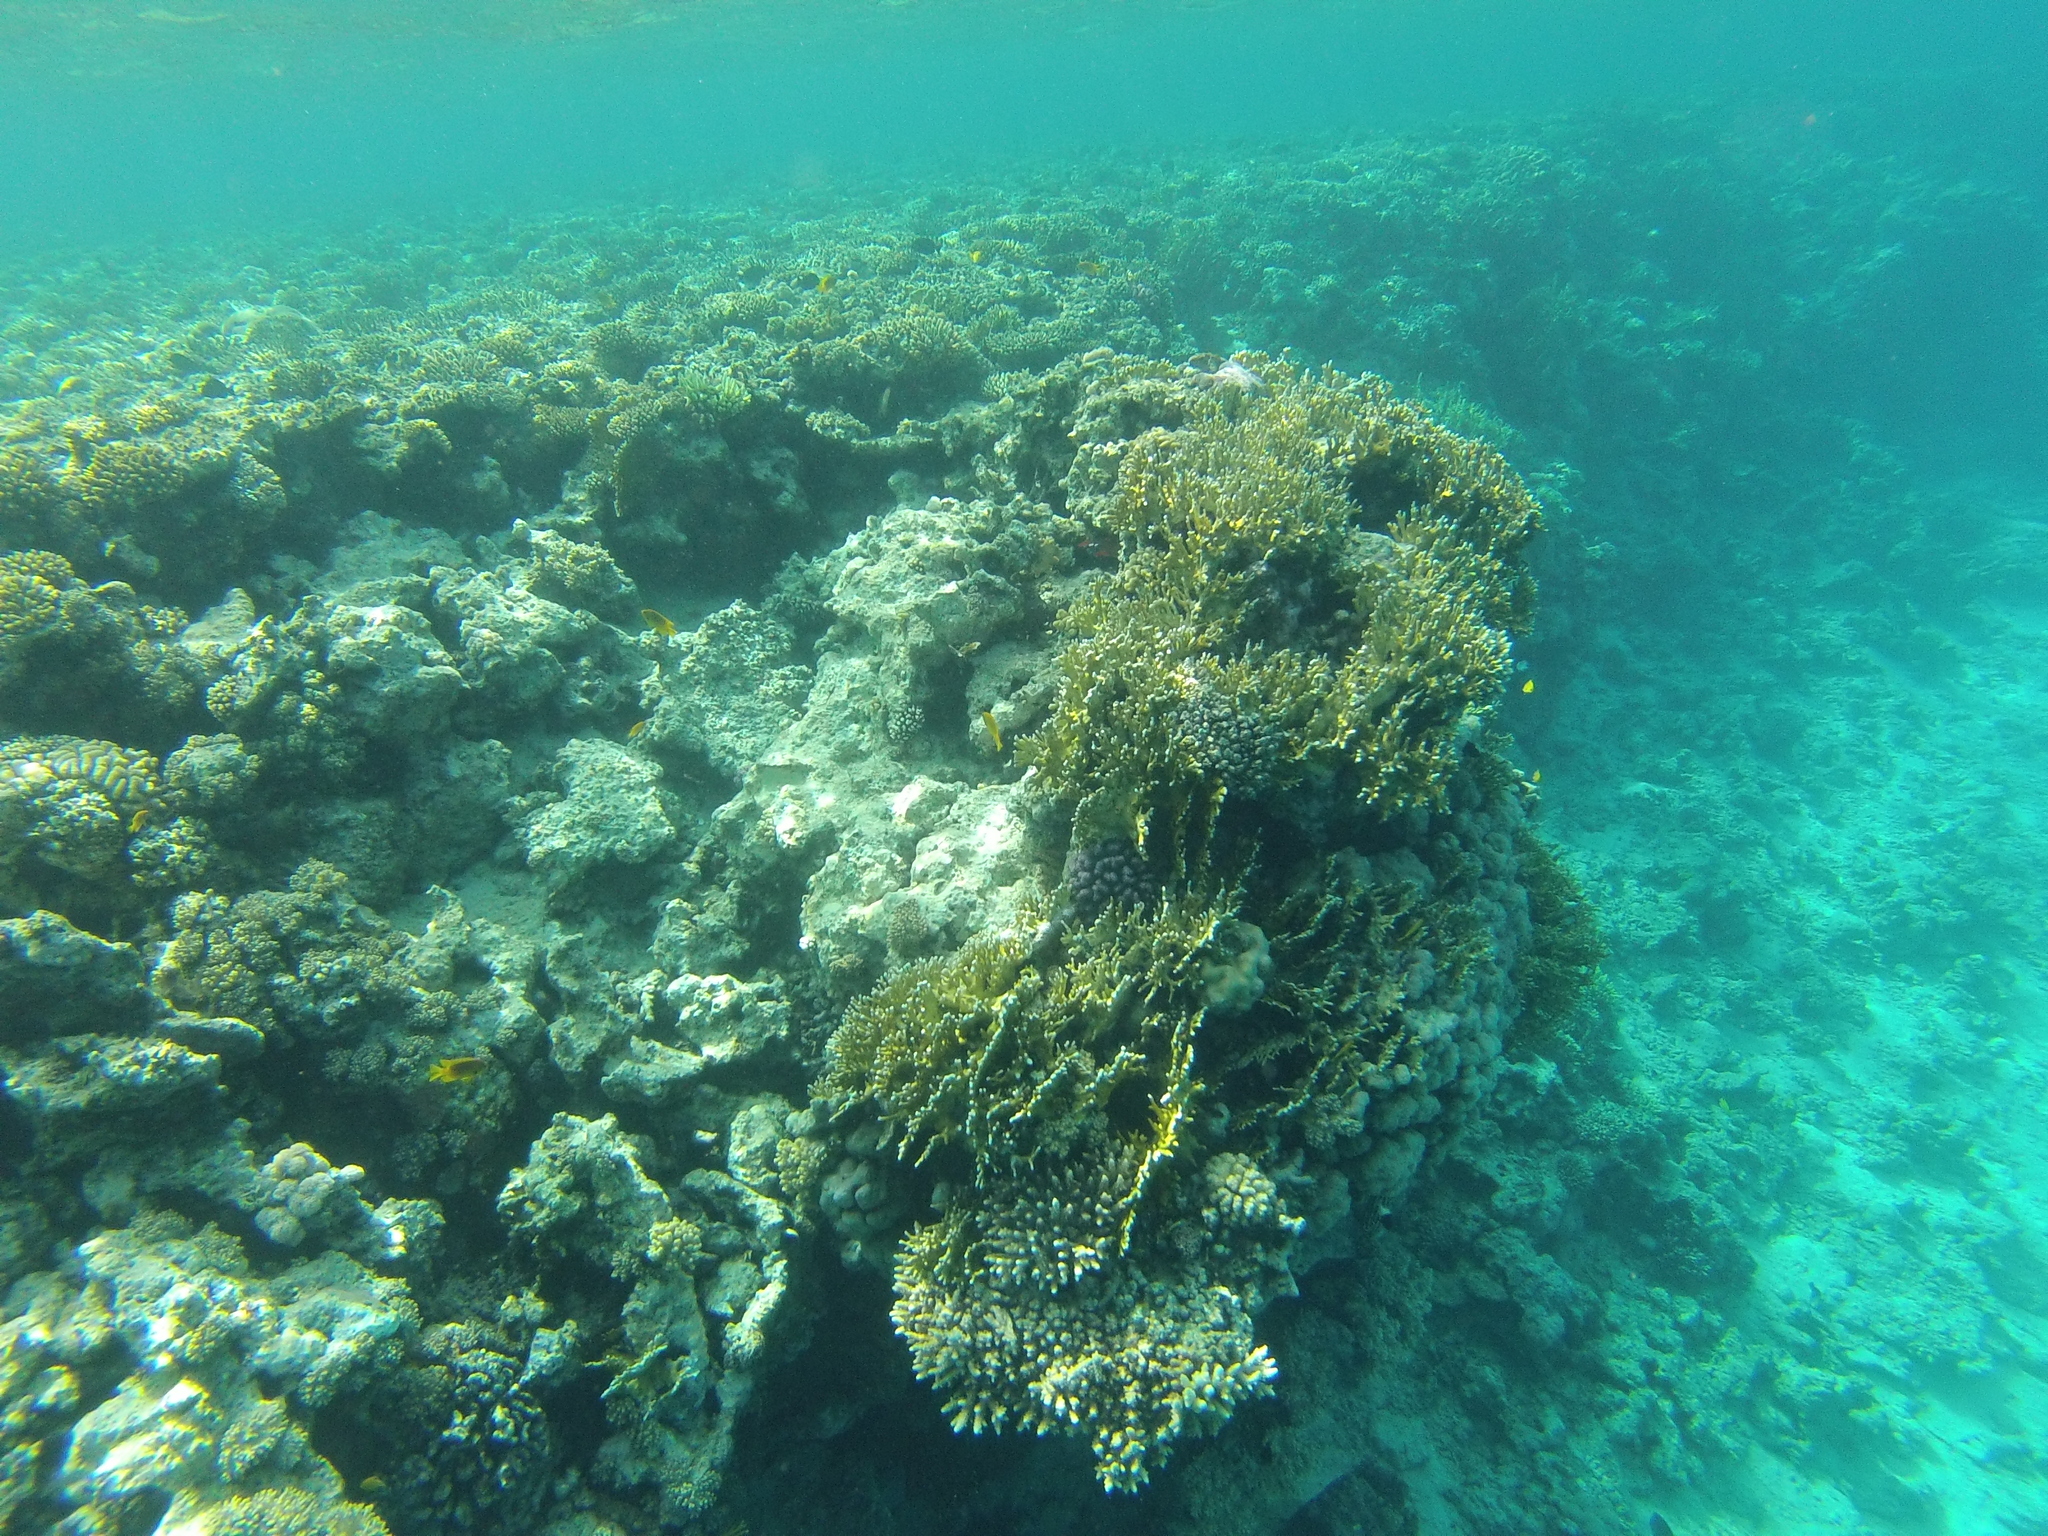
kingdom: Animalia
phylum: Cnidaria
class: Hydrozoa
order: Anthoathecata
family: Milleporidae
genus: Millepora
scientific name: Millepora dichotoma
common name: Ramified fire coral
